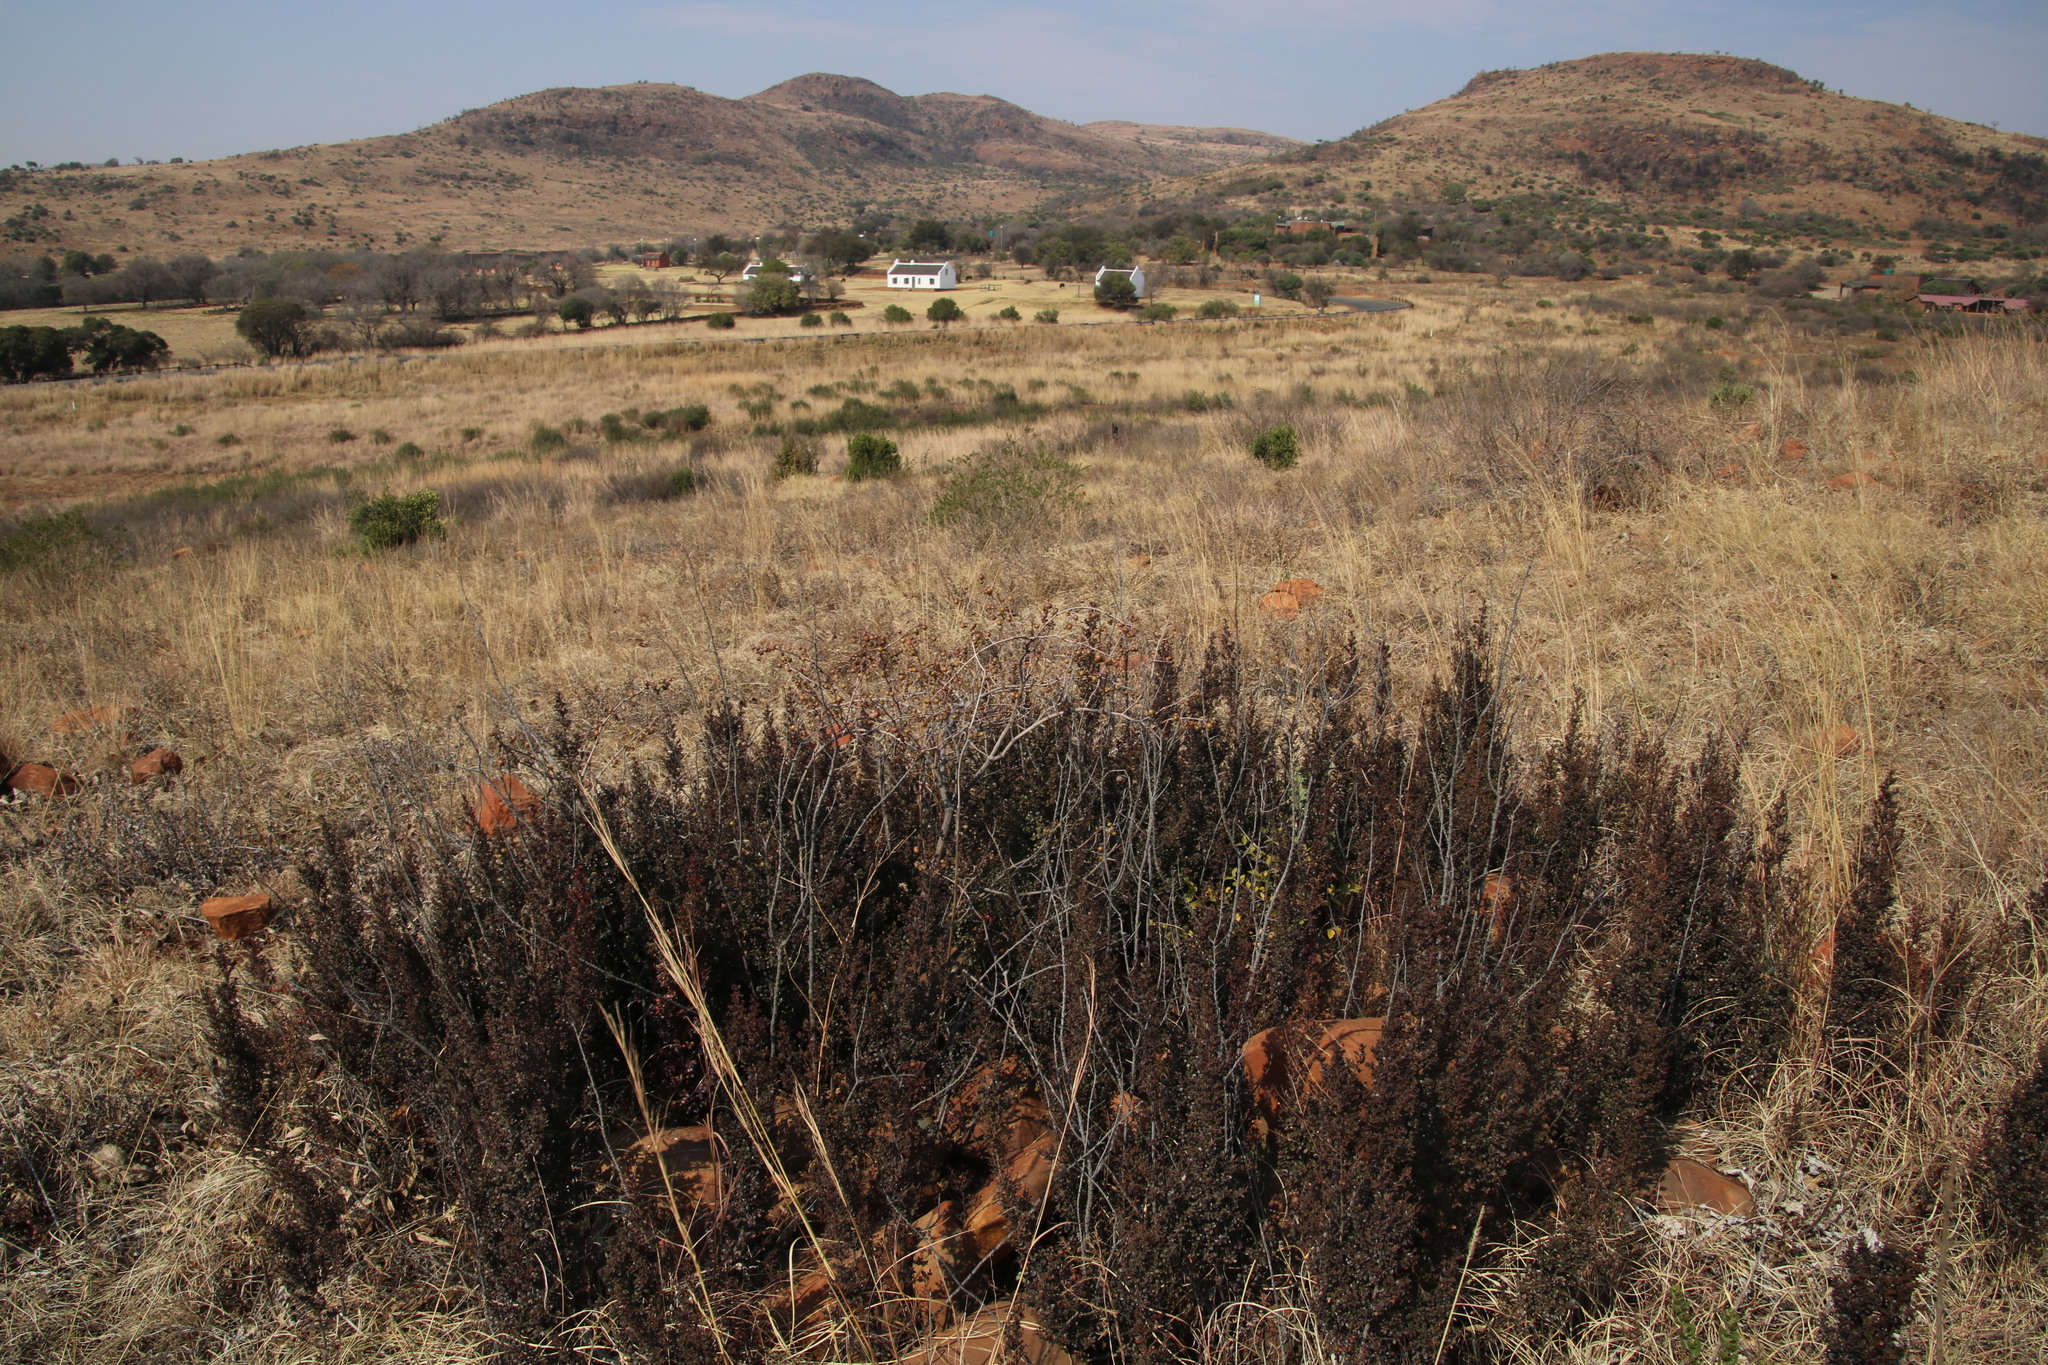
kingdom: Plantae
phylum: Tracheophyta
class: Magnoliopsida
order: Gunnerales
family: Myrothamnaceae
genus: Myrothamnus
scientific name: Myrothamnus flabellifolius
